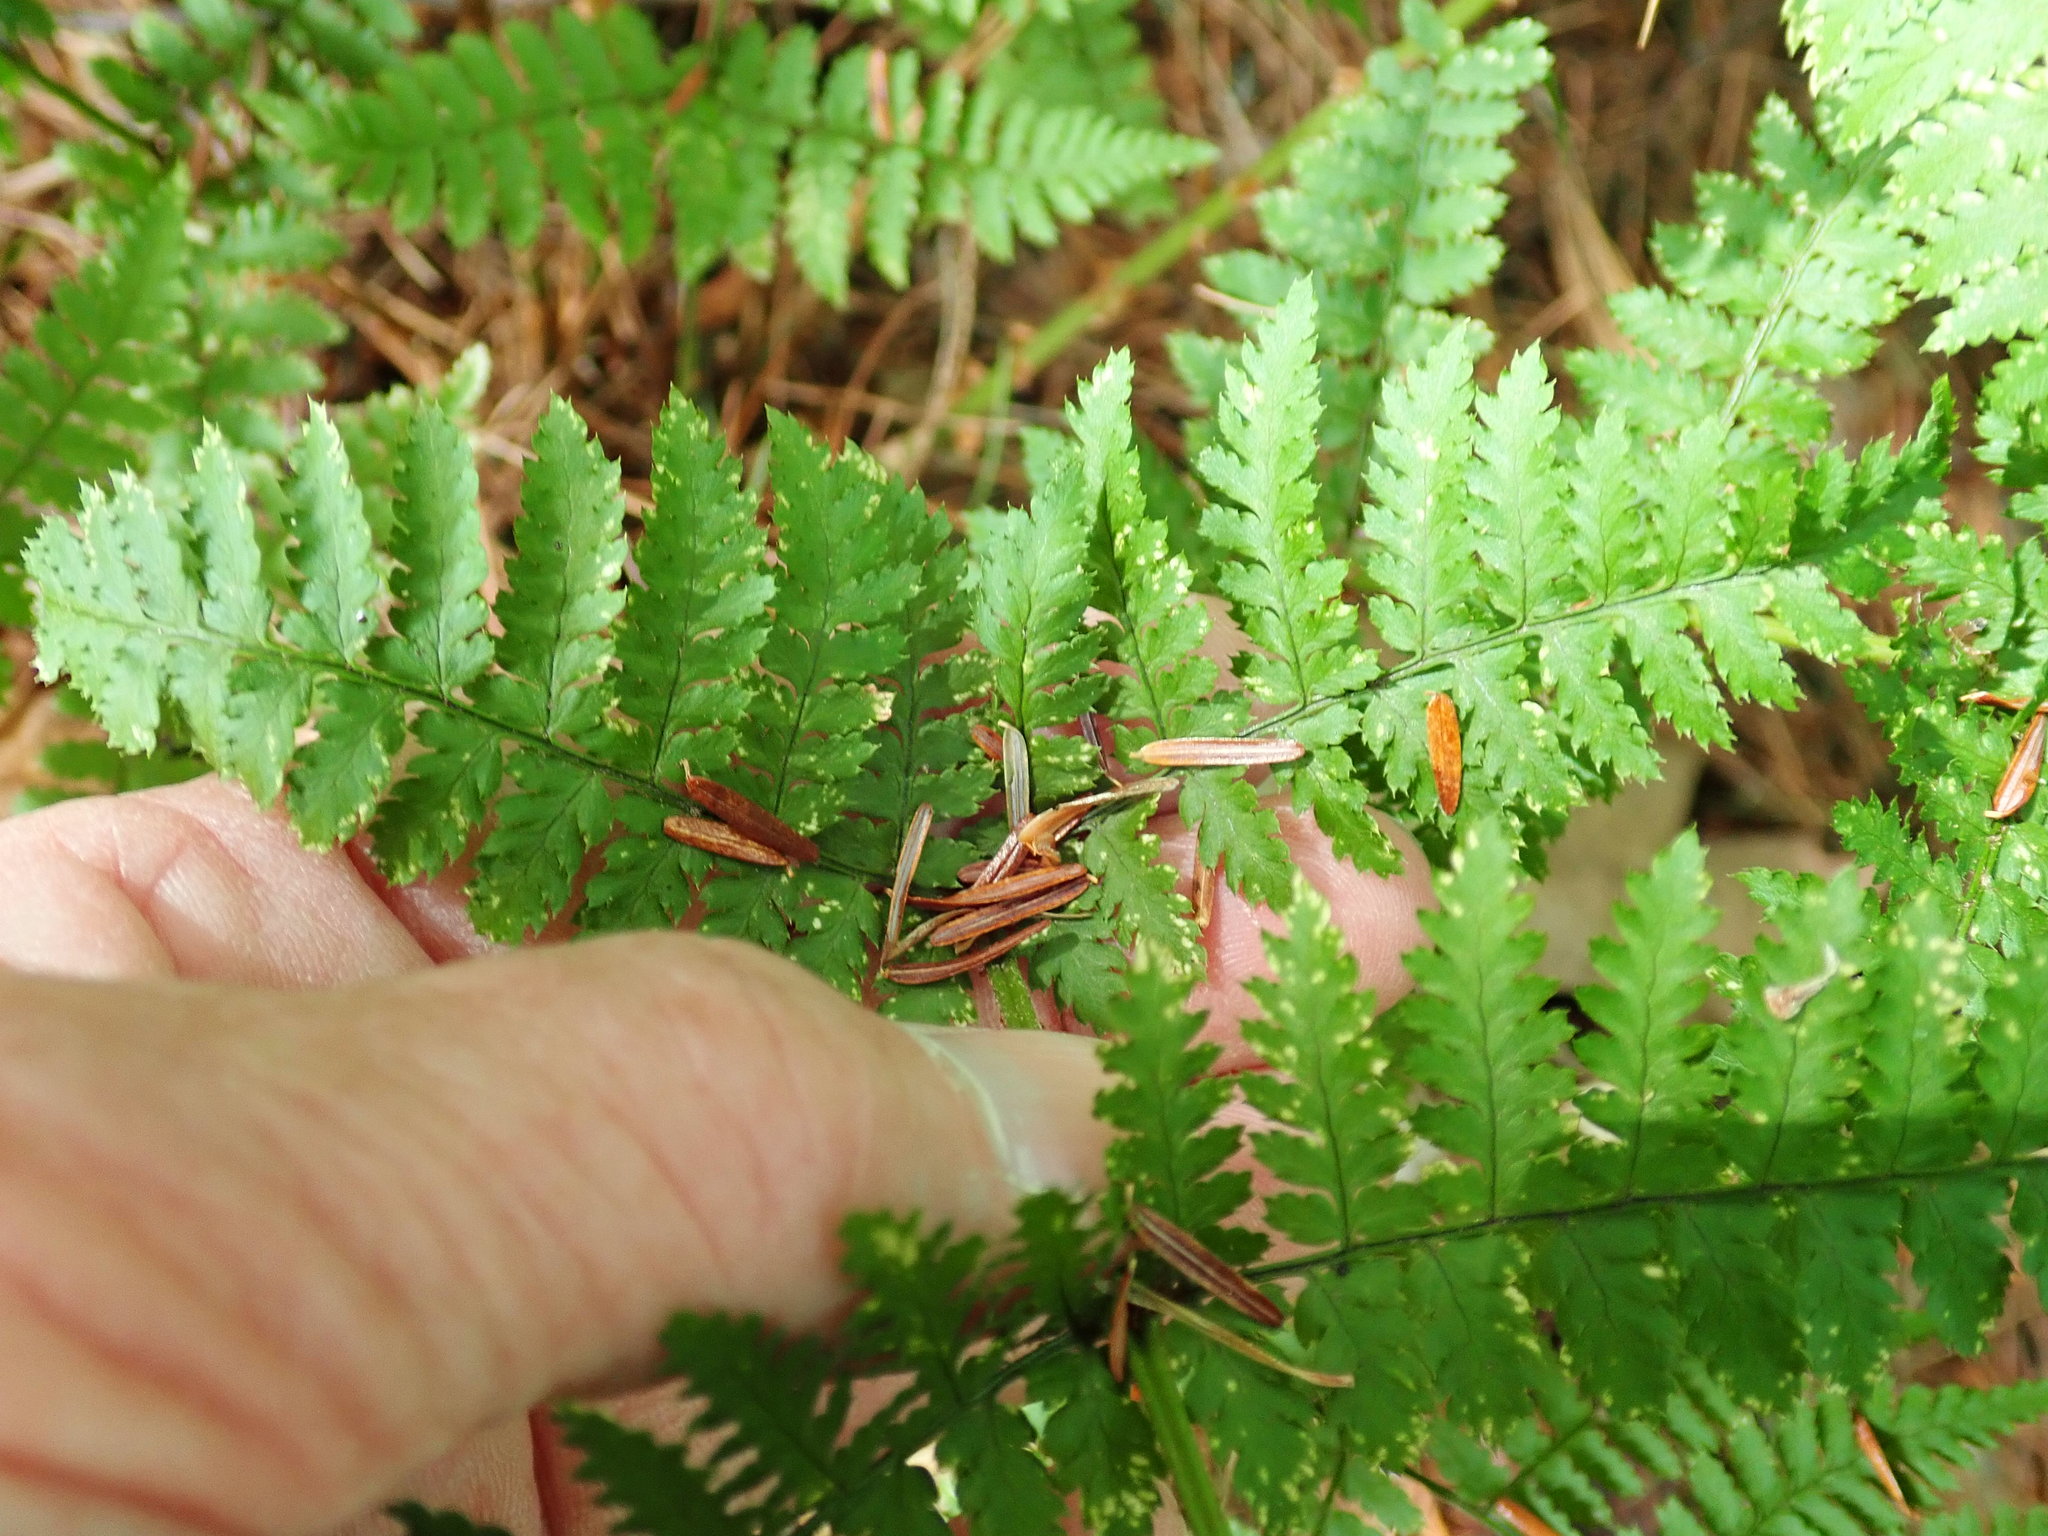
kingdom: Plantae
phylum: Tracheophyta
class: Polypodiopsida
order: Polypodiales
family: Dryopteridaceae
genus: Dryopteris
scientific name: Dryopteris intermedia
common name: Evergreen wood fern
